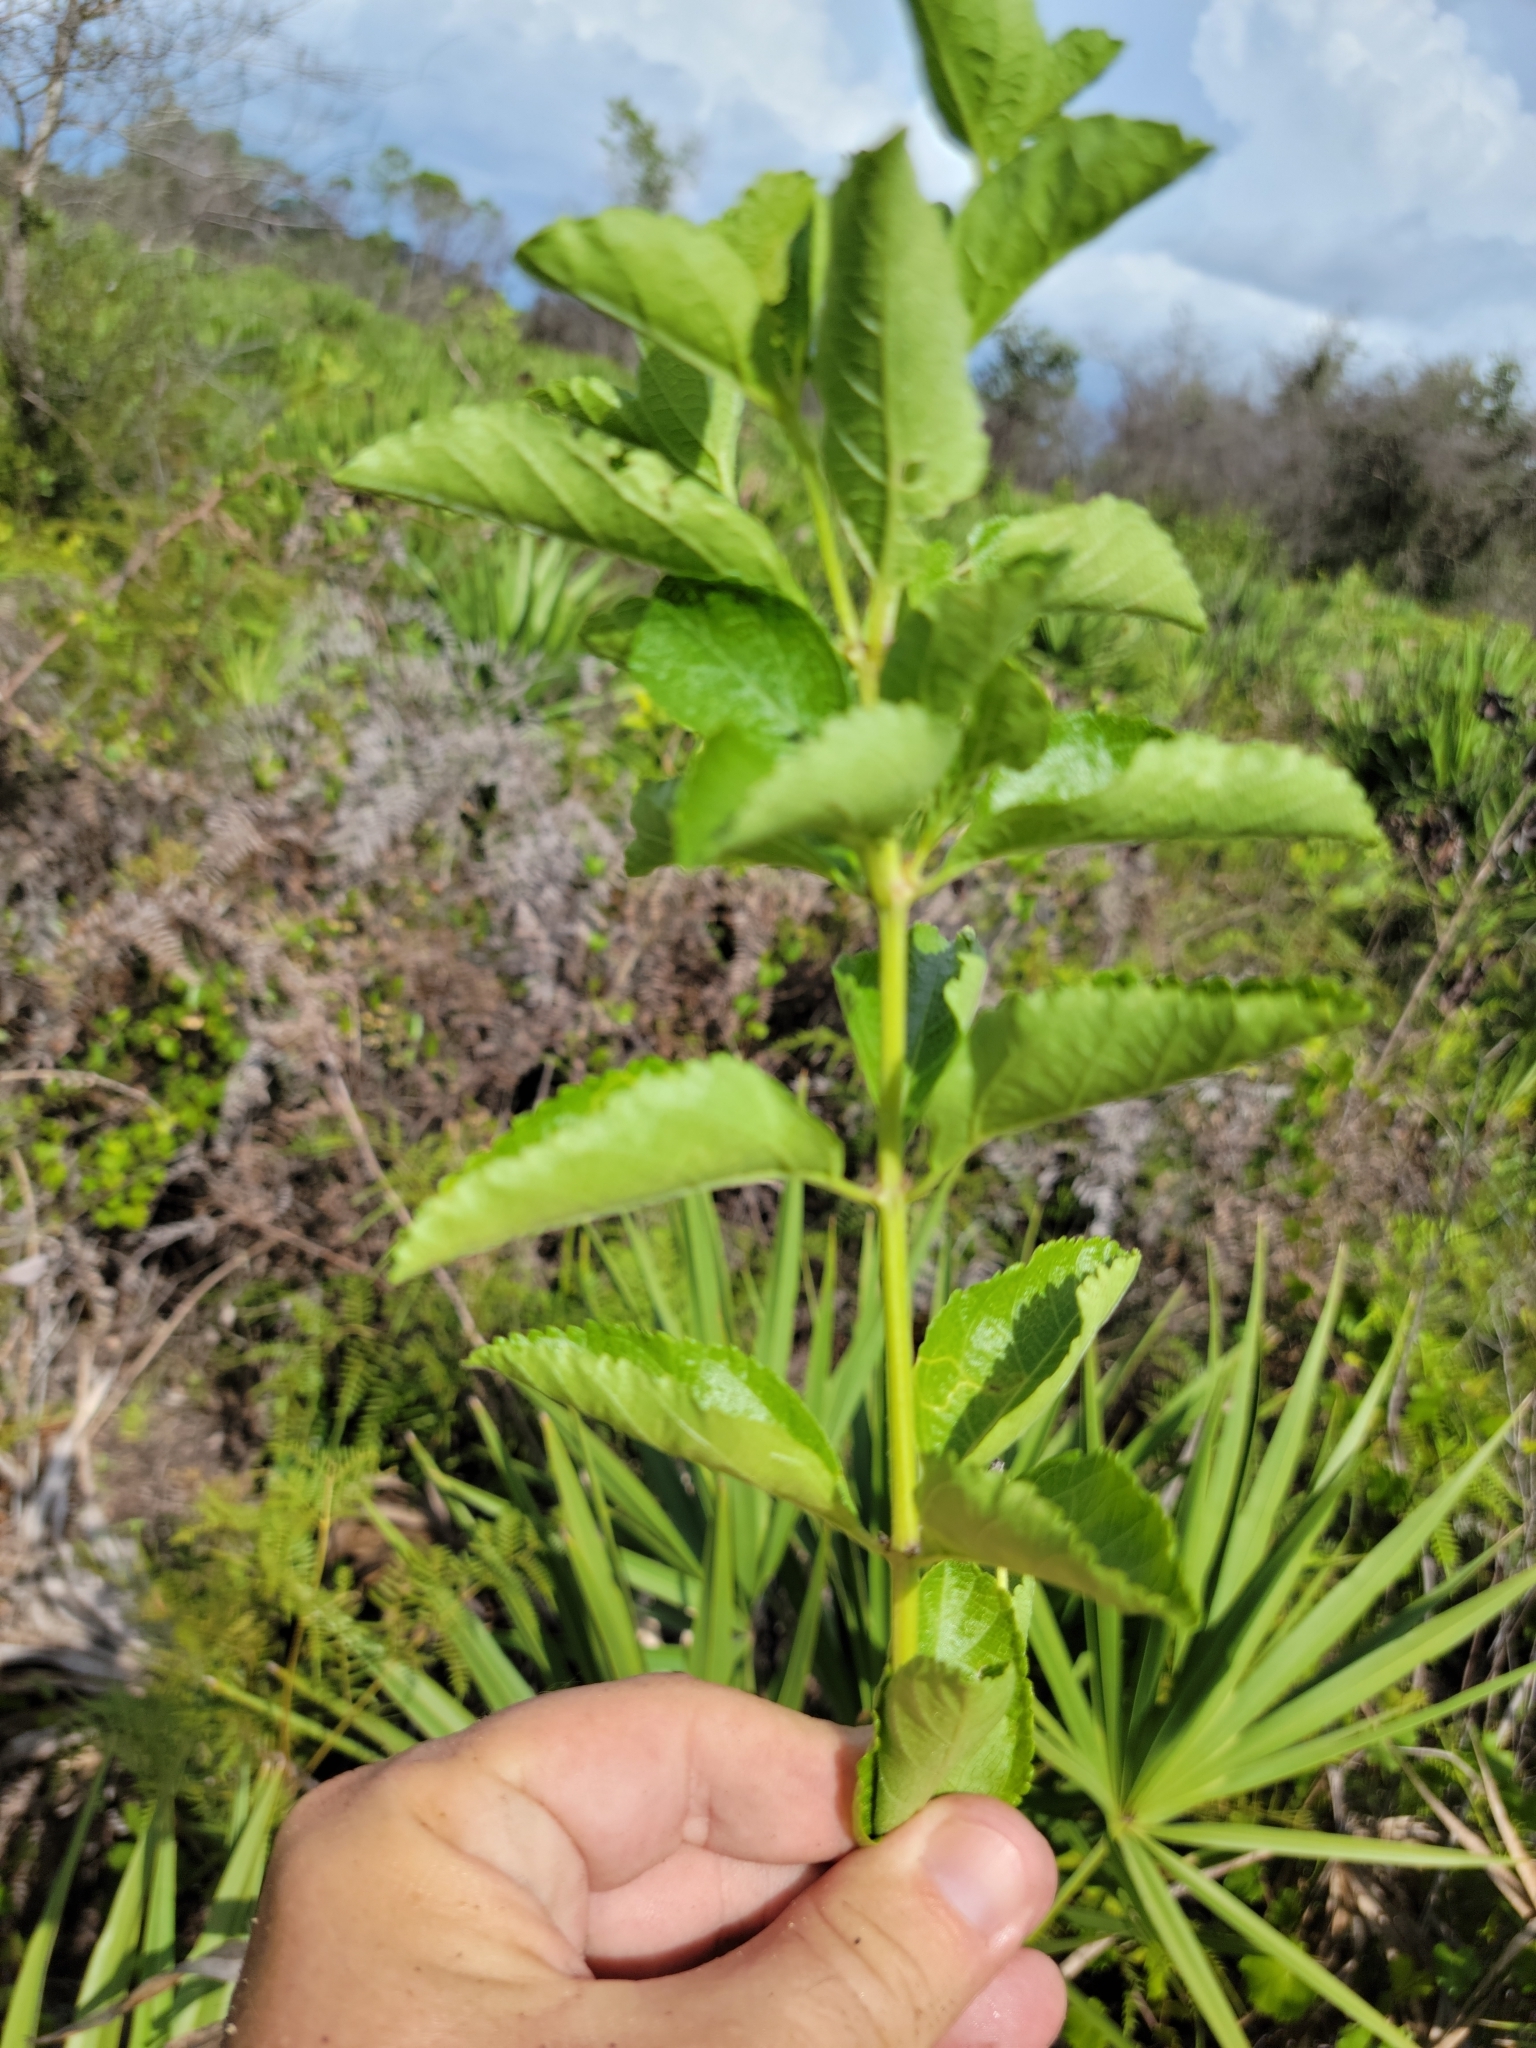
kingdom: Plantae
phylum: Tracheophyta
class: Magnoliopsida
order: Lamiales
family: Verbenaceae
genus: Lantana
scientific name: Lantana sandersii
